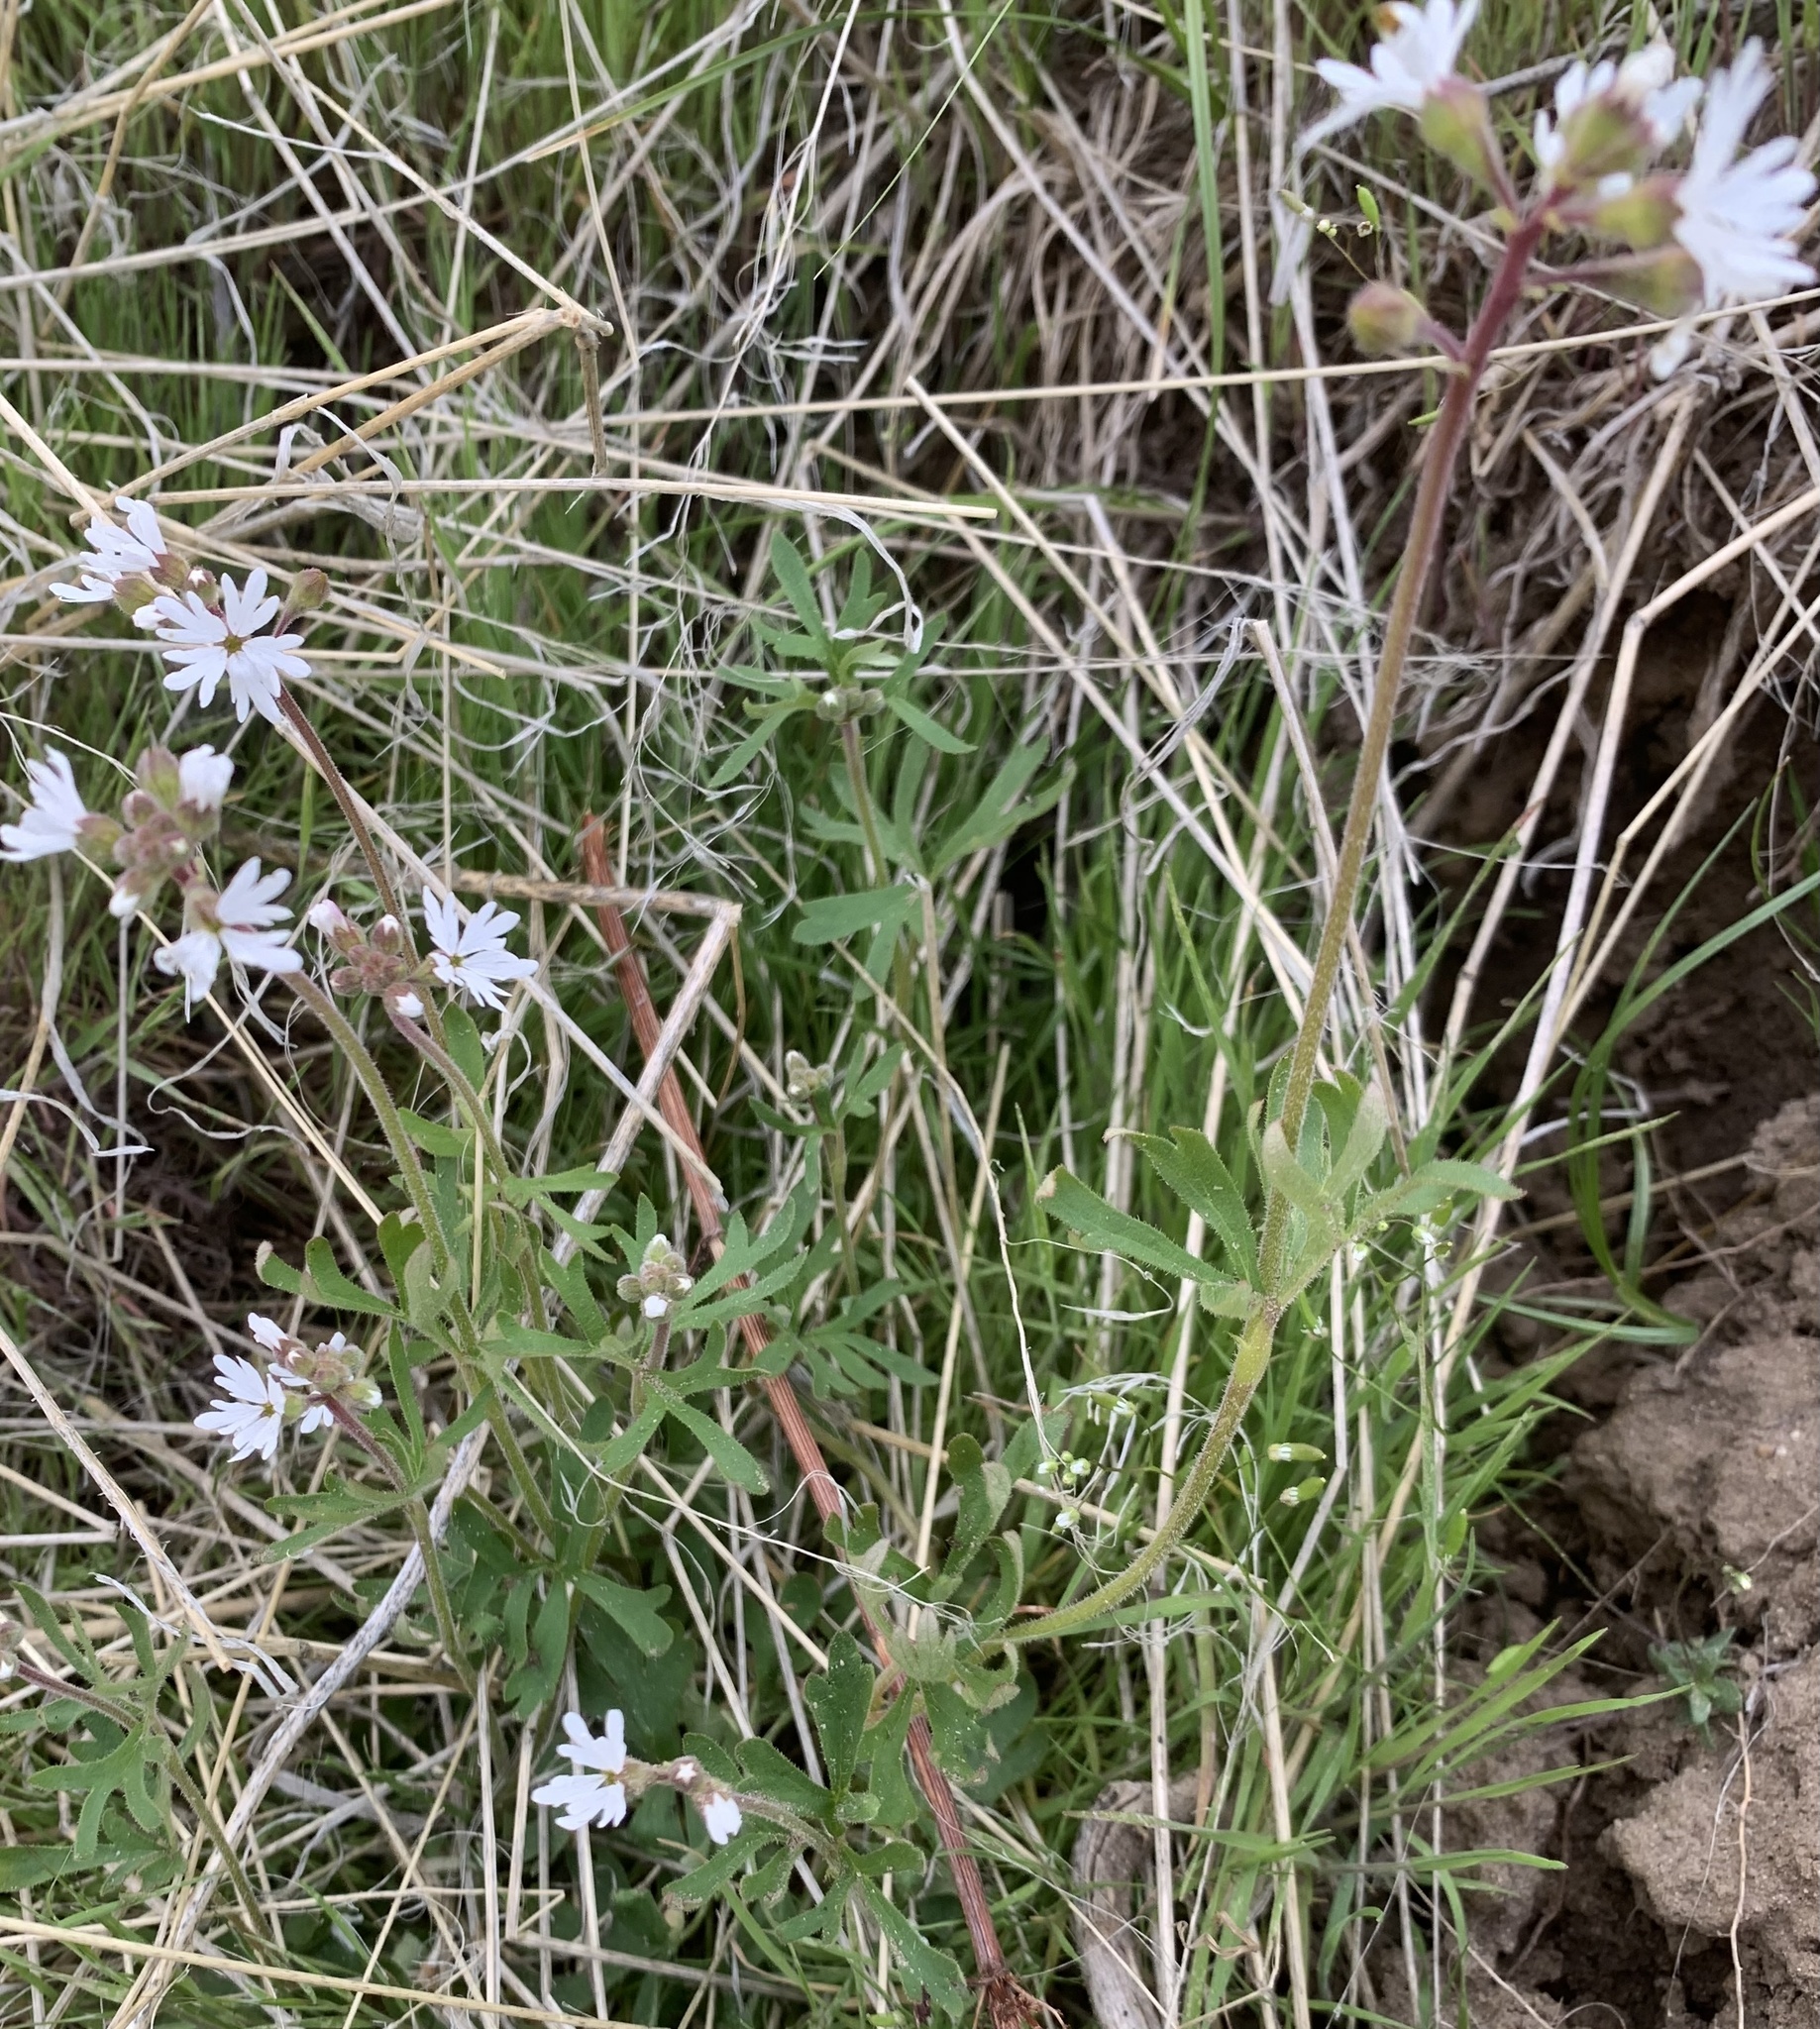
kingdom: Plantae
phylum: Tracheophyta
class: Magnoliopsida
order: Saxifragales
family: Saxifragaceae
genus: Lithophragma
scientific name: Lithophragma parviflorum
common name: Small-flowered fringe-cup
